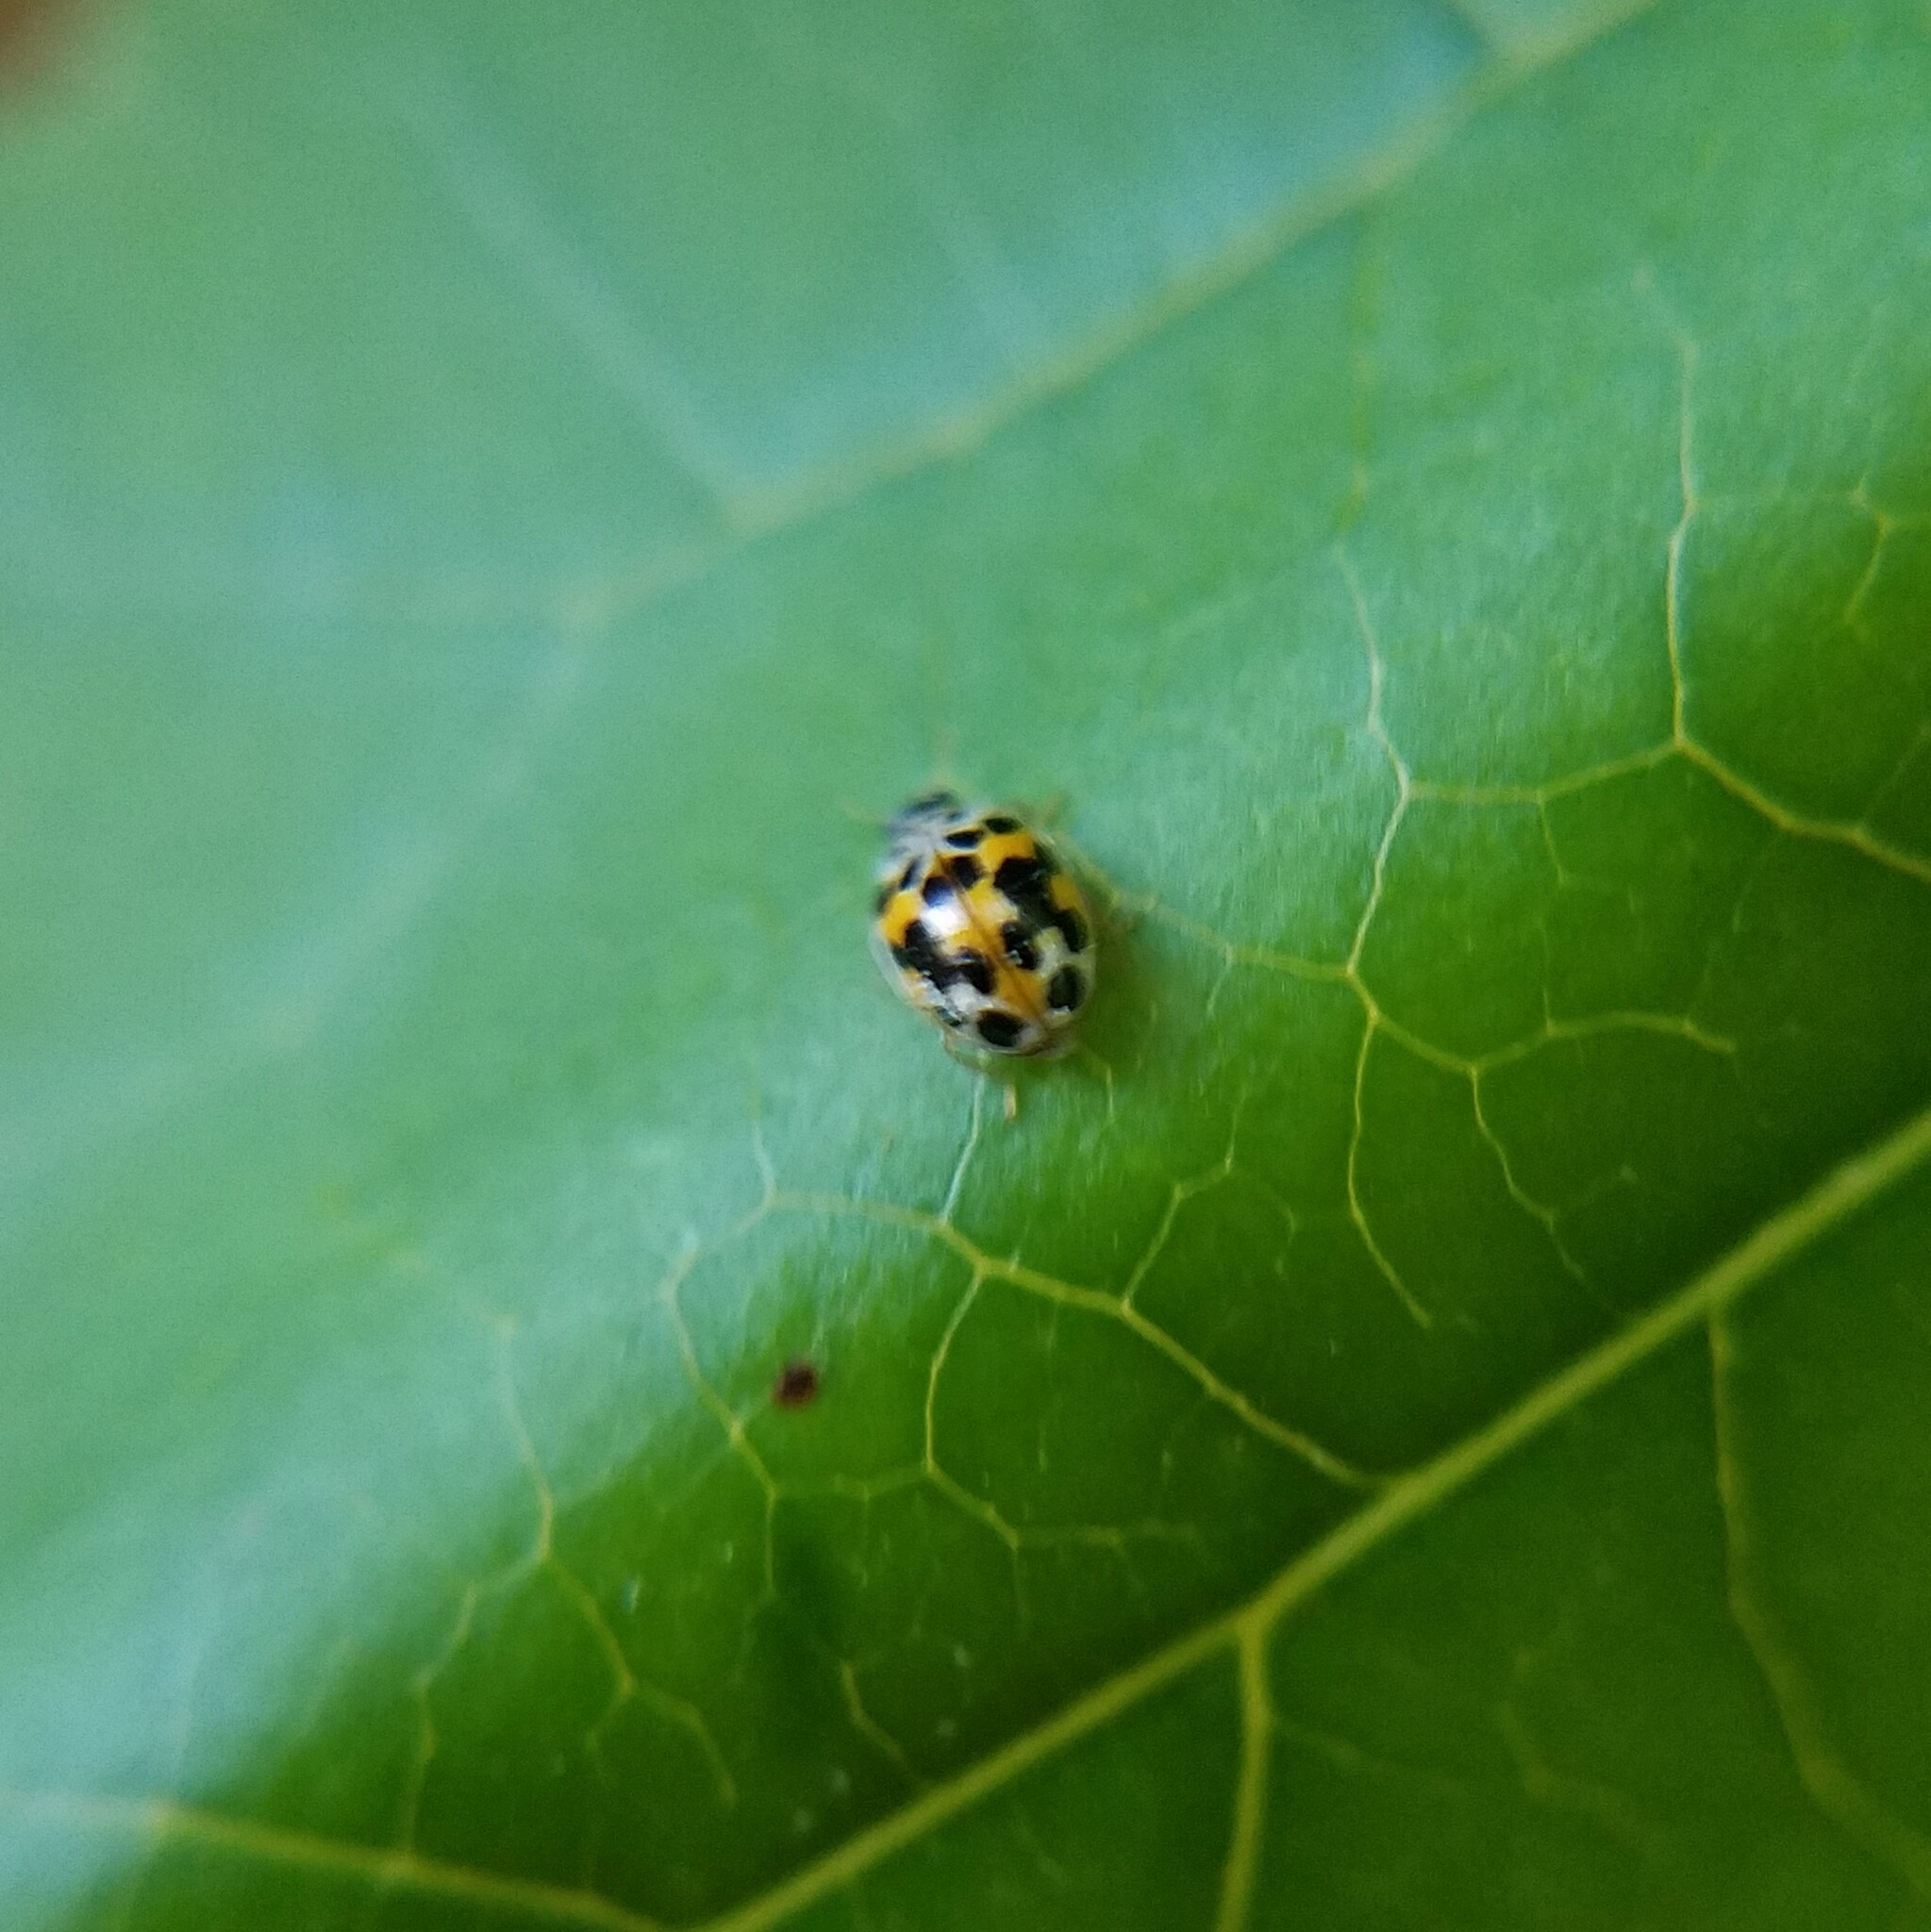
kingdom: Animalia
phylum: Arthropoda
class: Insecta
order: Coleoptera
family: Coccinellidae
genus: Psyllobora
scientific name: Psyllobora vigintimaculata
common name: Ladybird beetle
